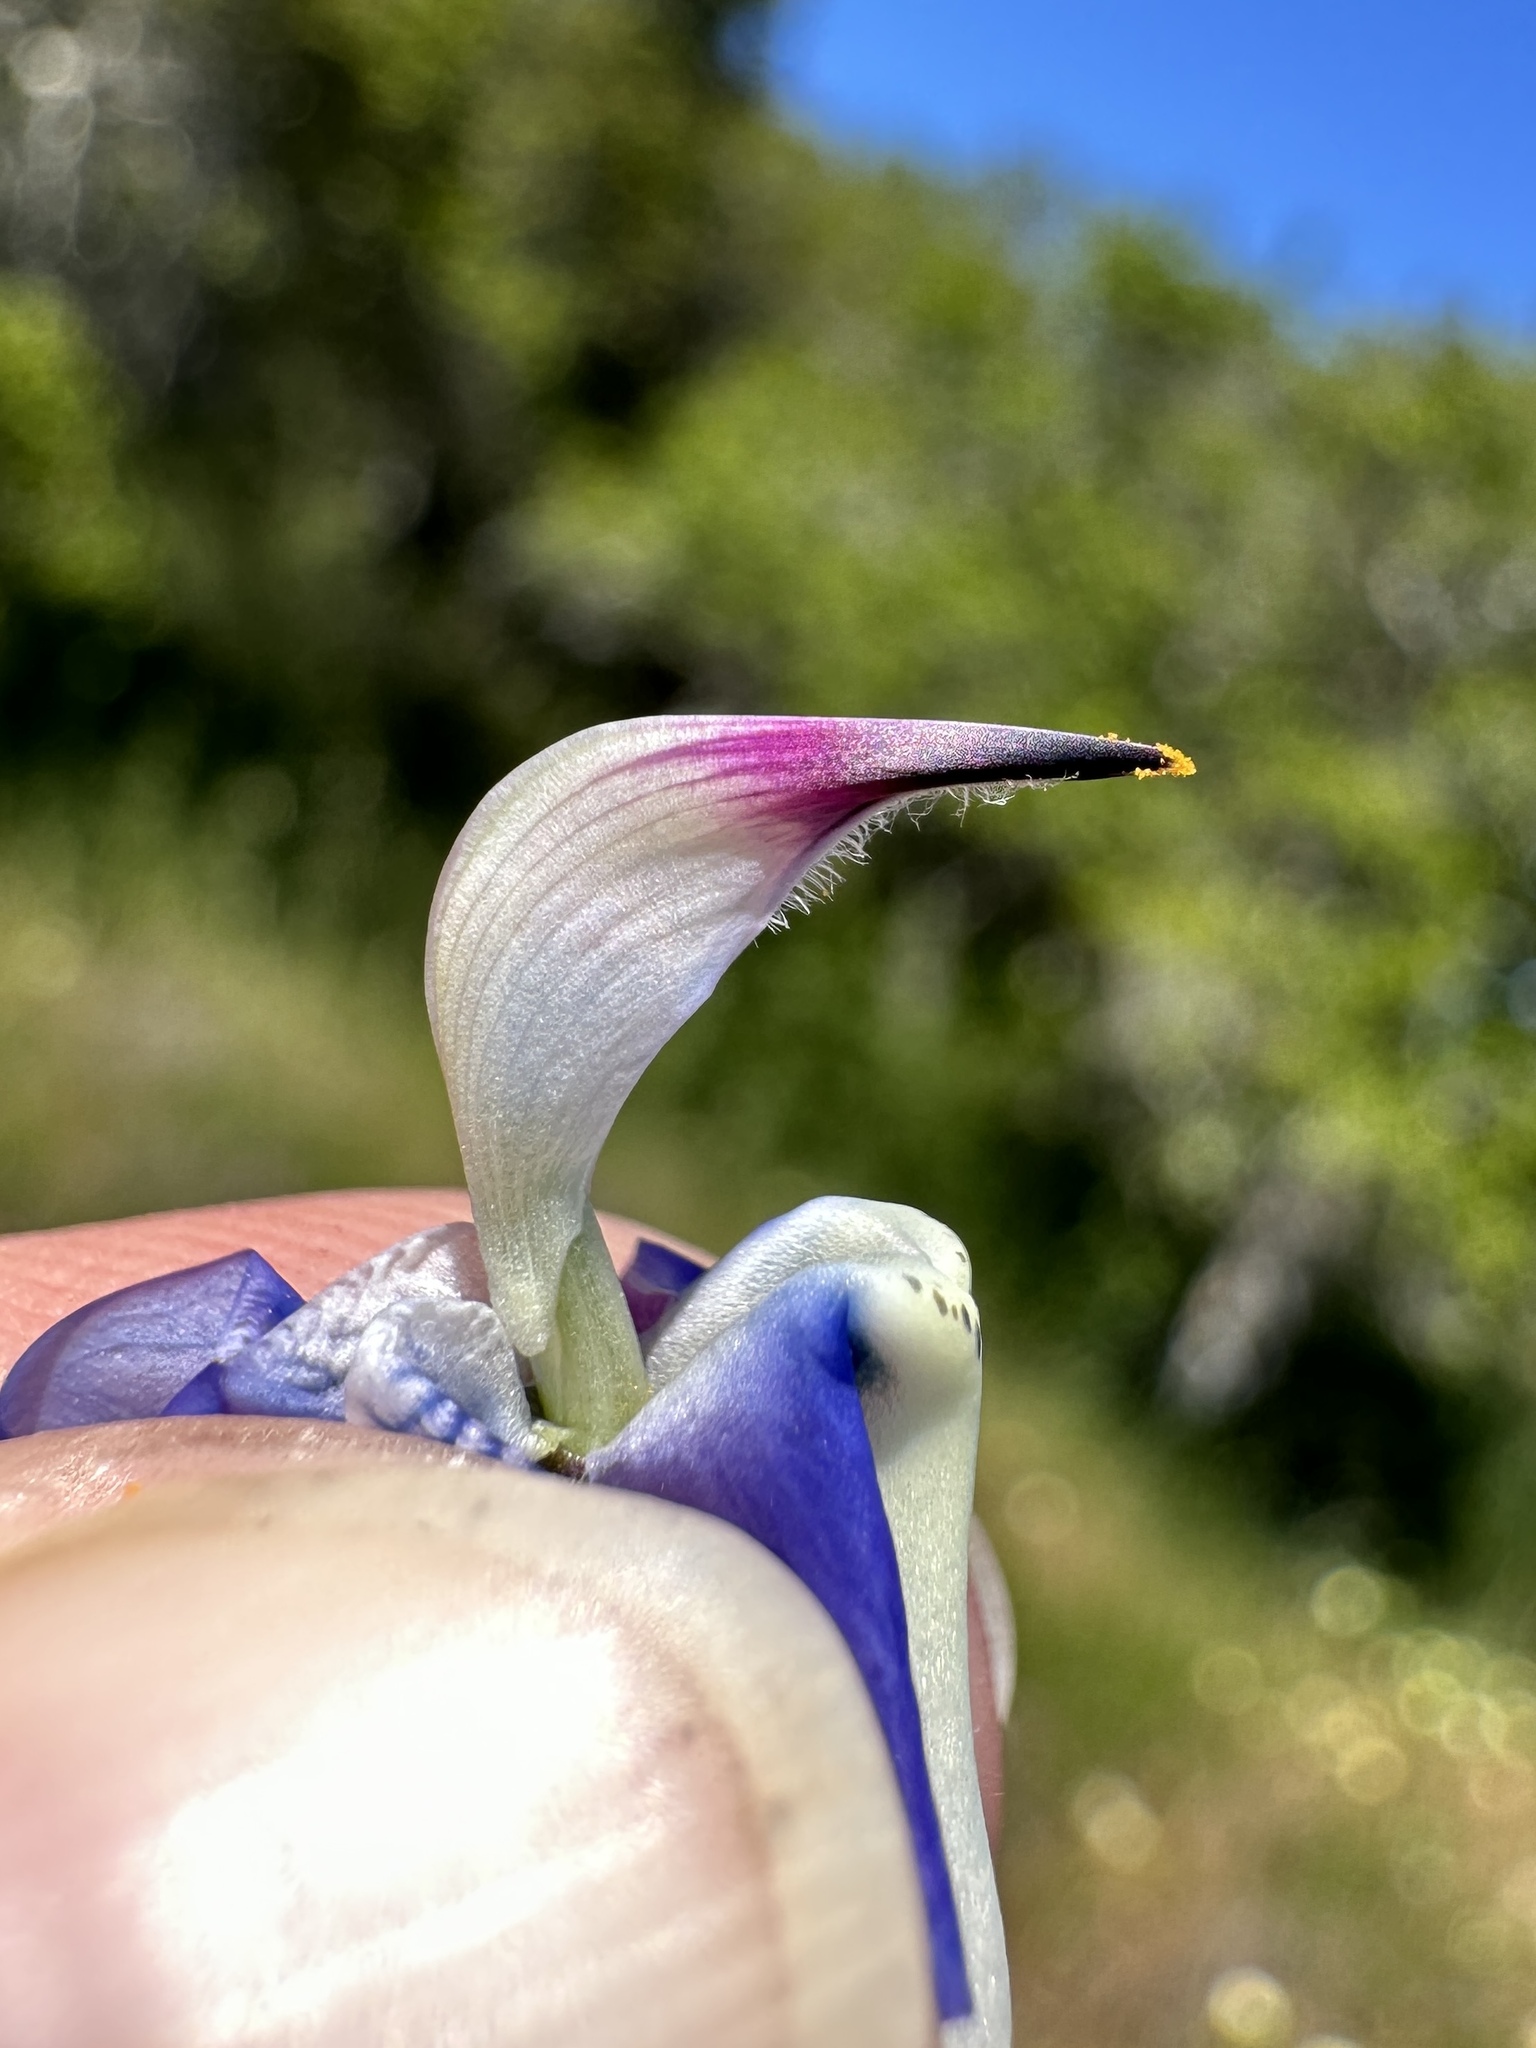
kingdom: Plantae
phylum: Tracheophyta
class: Magnoliopsida
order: Fabales
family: Fabaceae
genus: Lupinus
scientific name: Lupinus nanus
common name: Orean blue lupin
